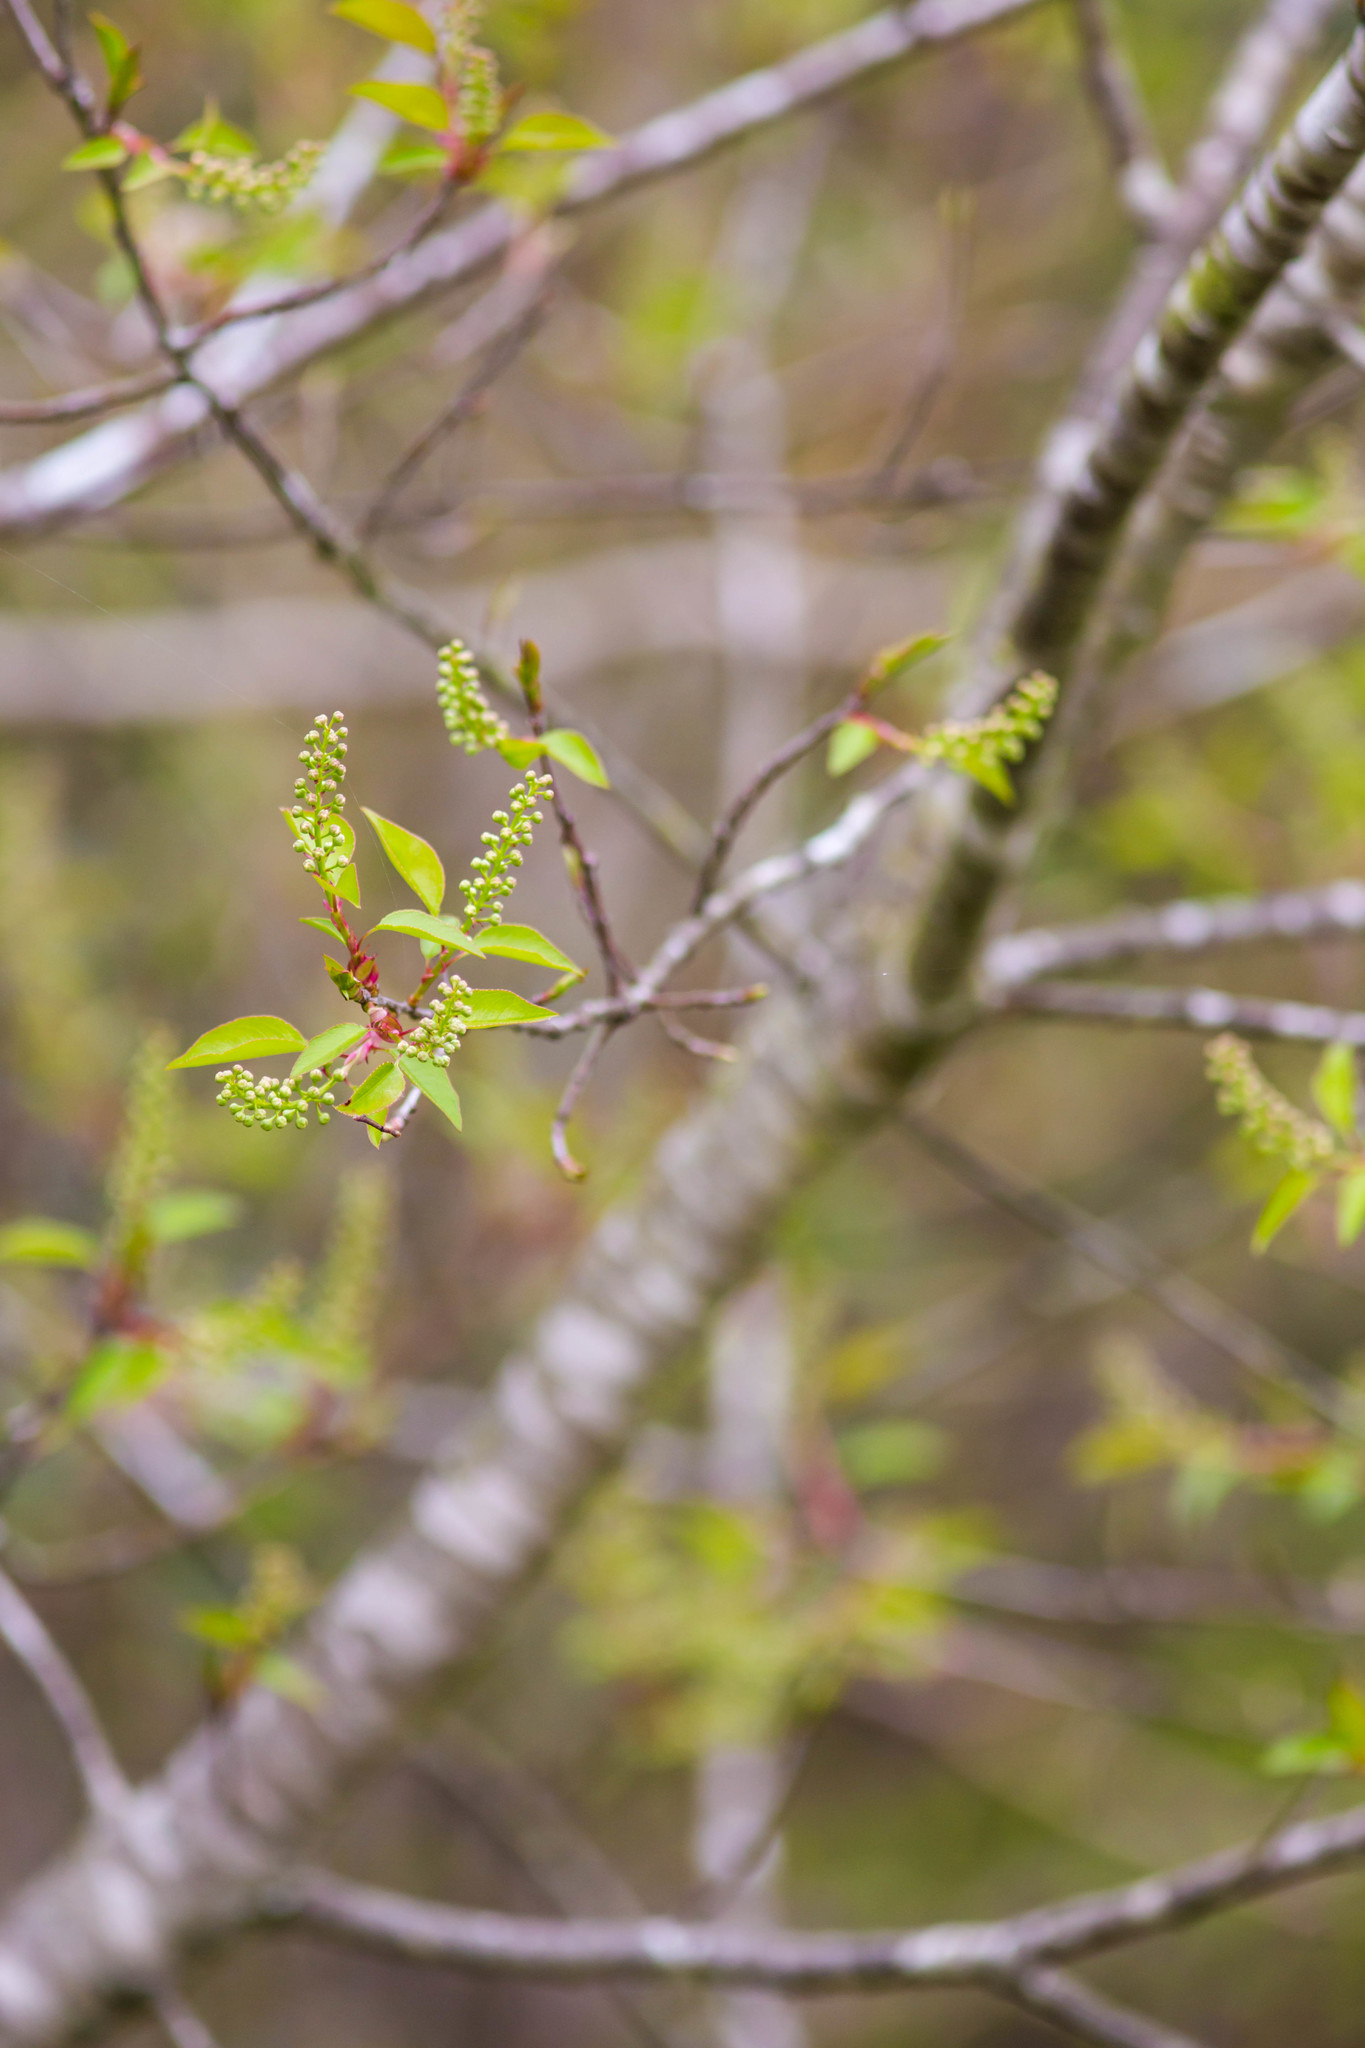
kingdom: Plantae
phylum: Tracheophyta
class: Magnoliopsida
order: Rosales
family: Rosaceae
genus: Prunus
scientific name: Prunus serotina
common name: Black cherry
